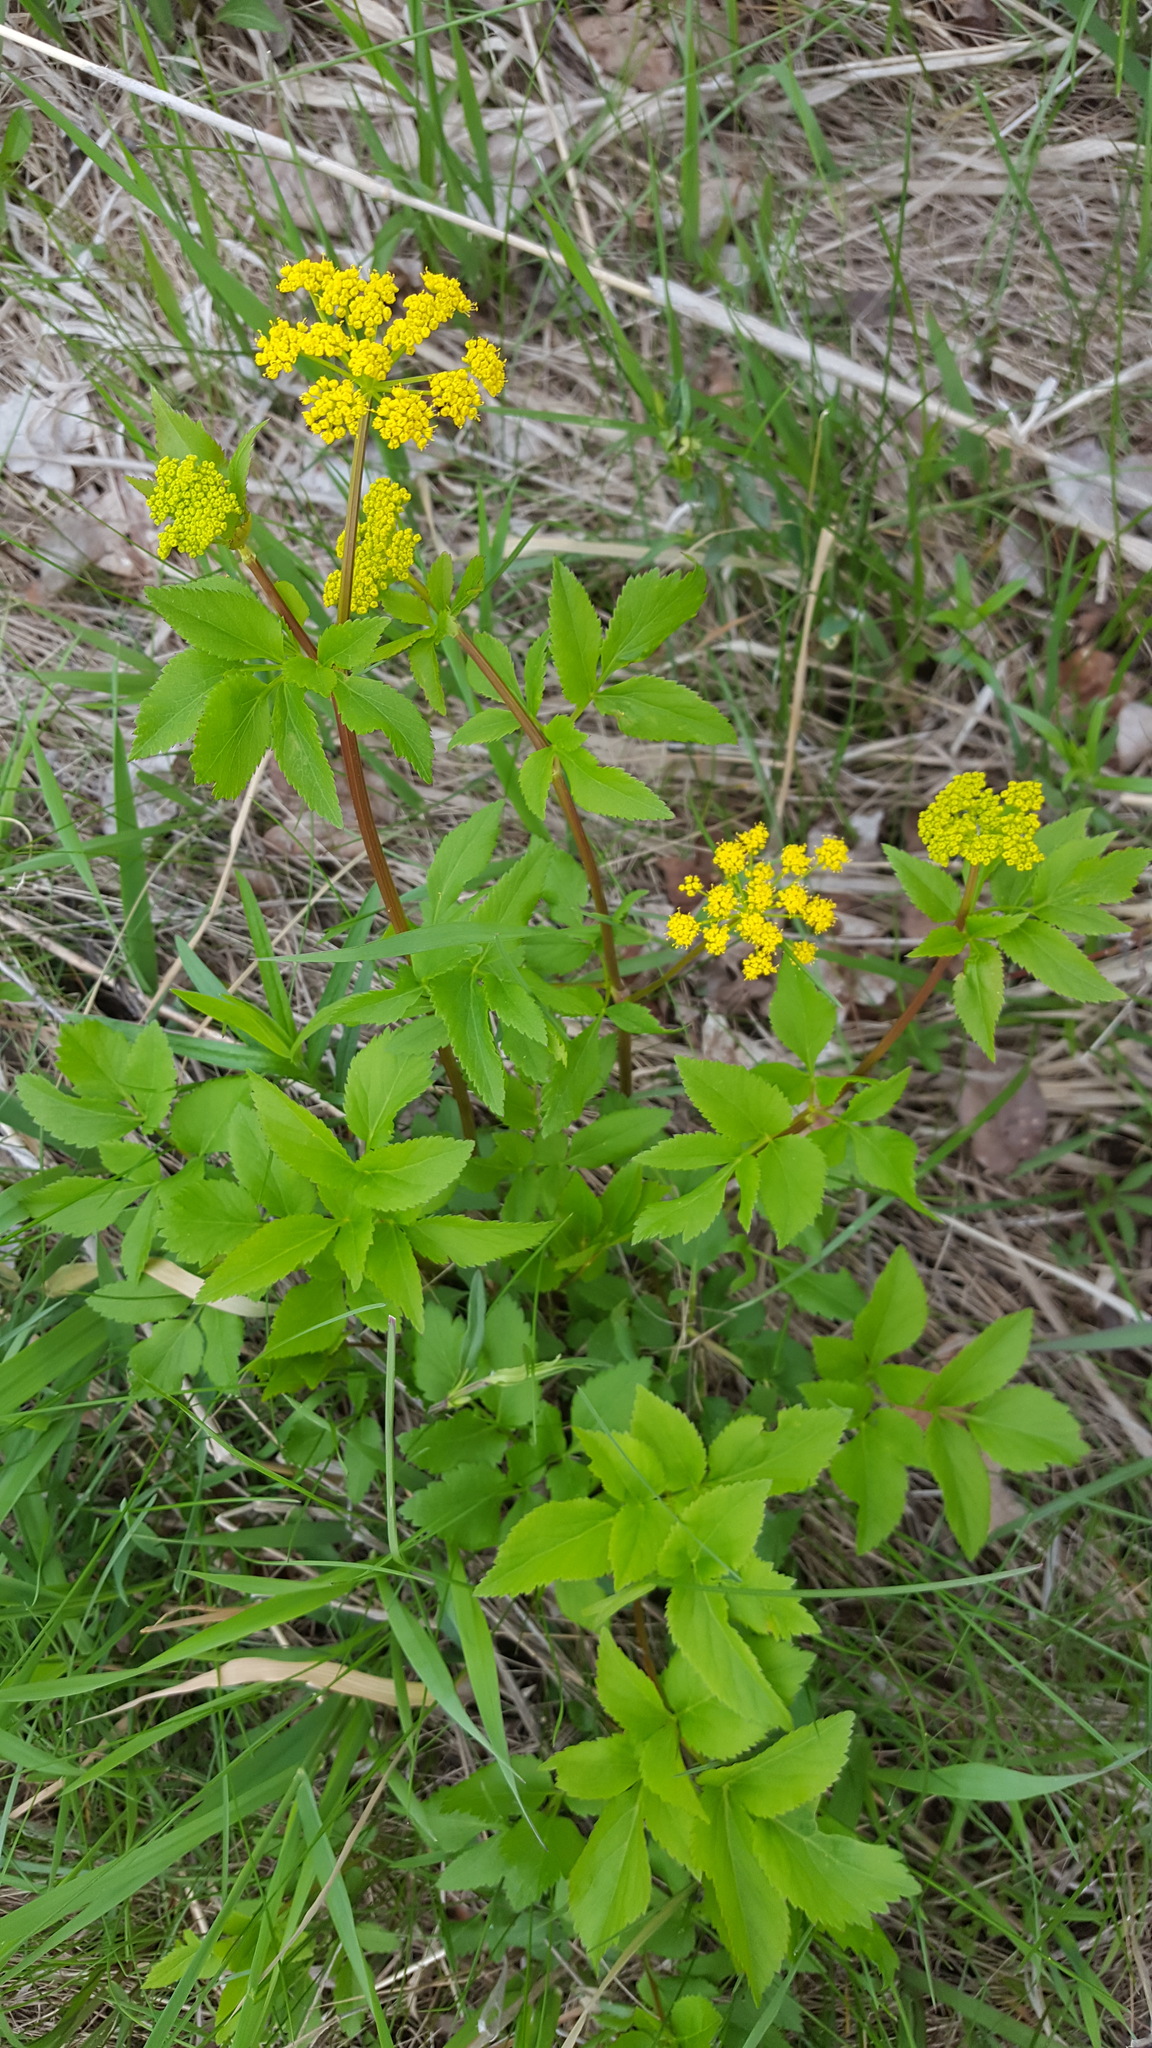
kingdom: Plantae
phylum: Tracheophyta
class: Magnoliopsida
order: Apiales
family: Apiaceae
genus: Zizia
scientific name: Zizia aurea
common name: Golden alexanders
